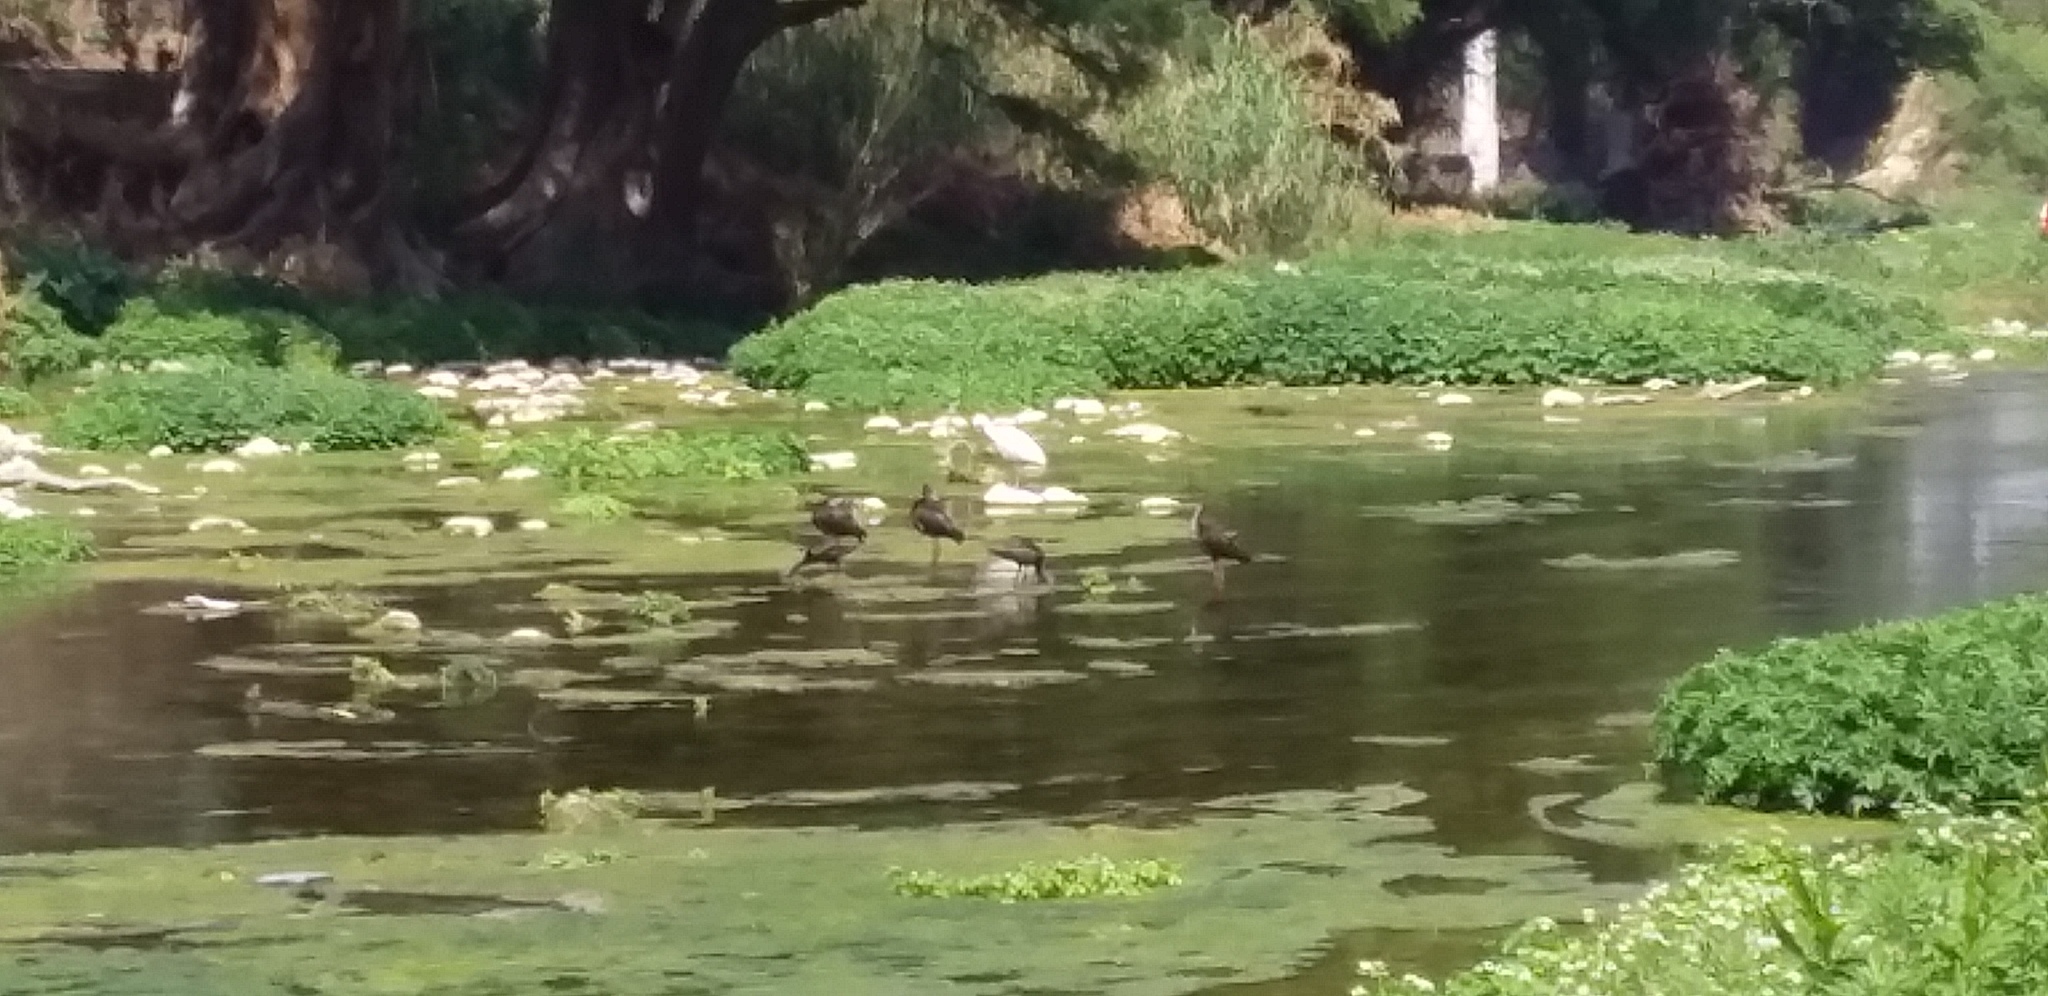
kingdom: Animalia
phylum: Chordata
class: Aves
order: Pelecaniformes
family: Threskiornithidae
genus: Plegadis
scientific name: Plegadis chihi
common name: White-faced ibis
